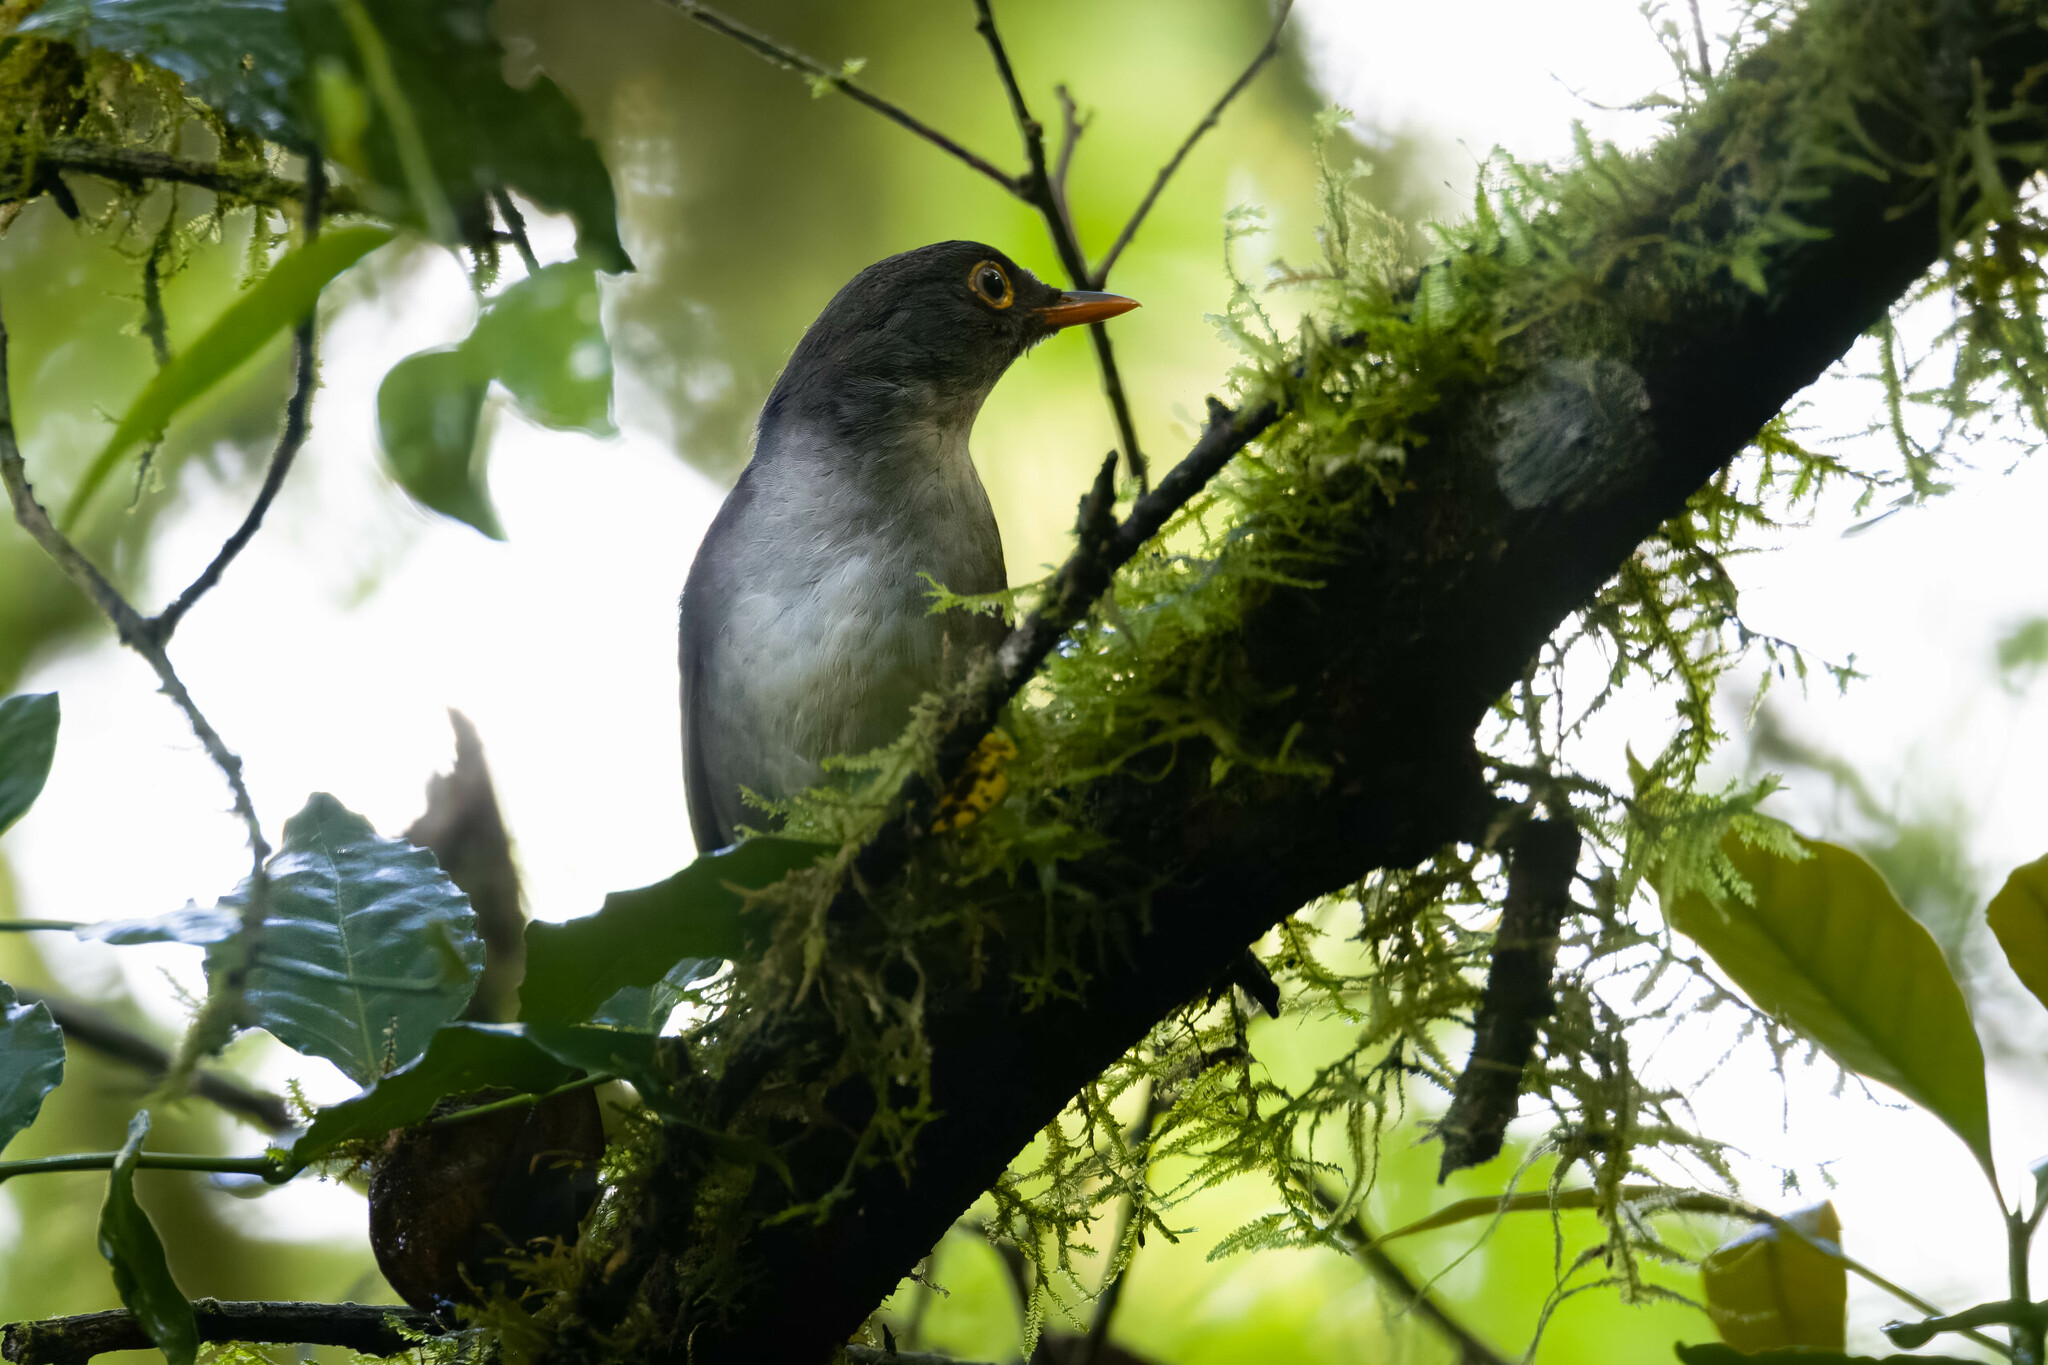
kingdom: Animalia
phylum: Chordata
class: Aves
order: Passeriformes
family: Turdidae
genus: Catharus
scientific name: Catharus fuscater
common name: Slaty-backed nightingale-thrush
